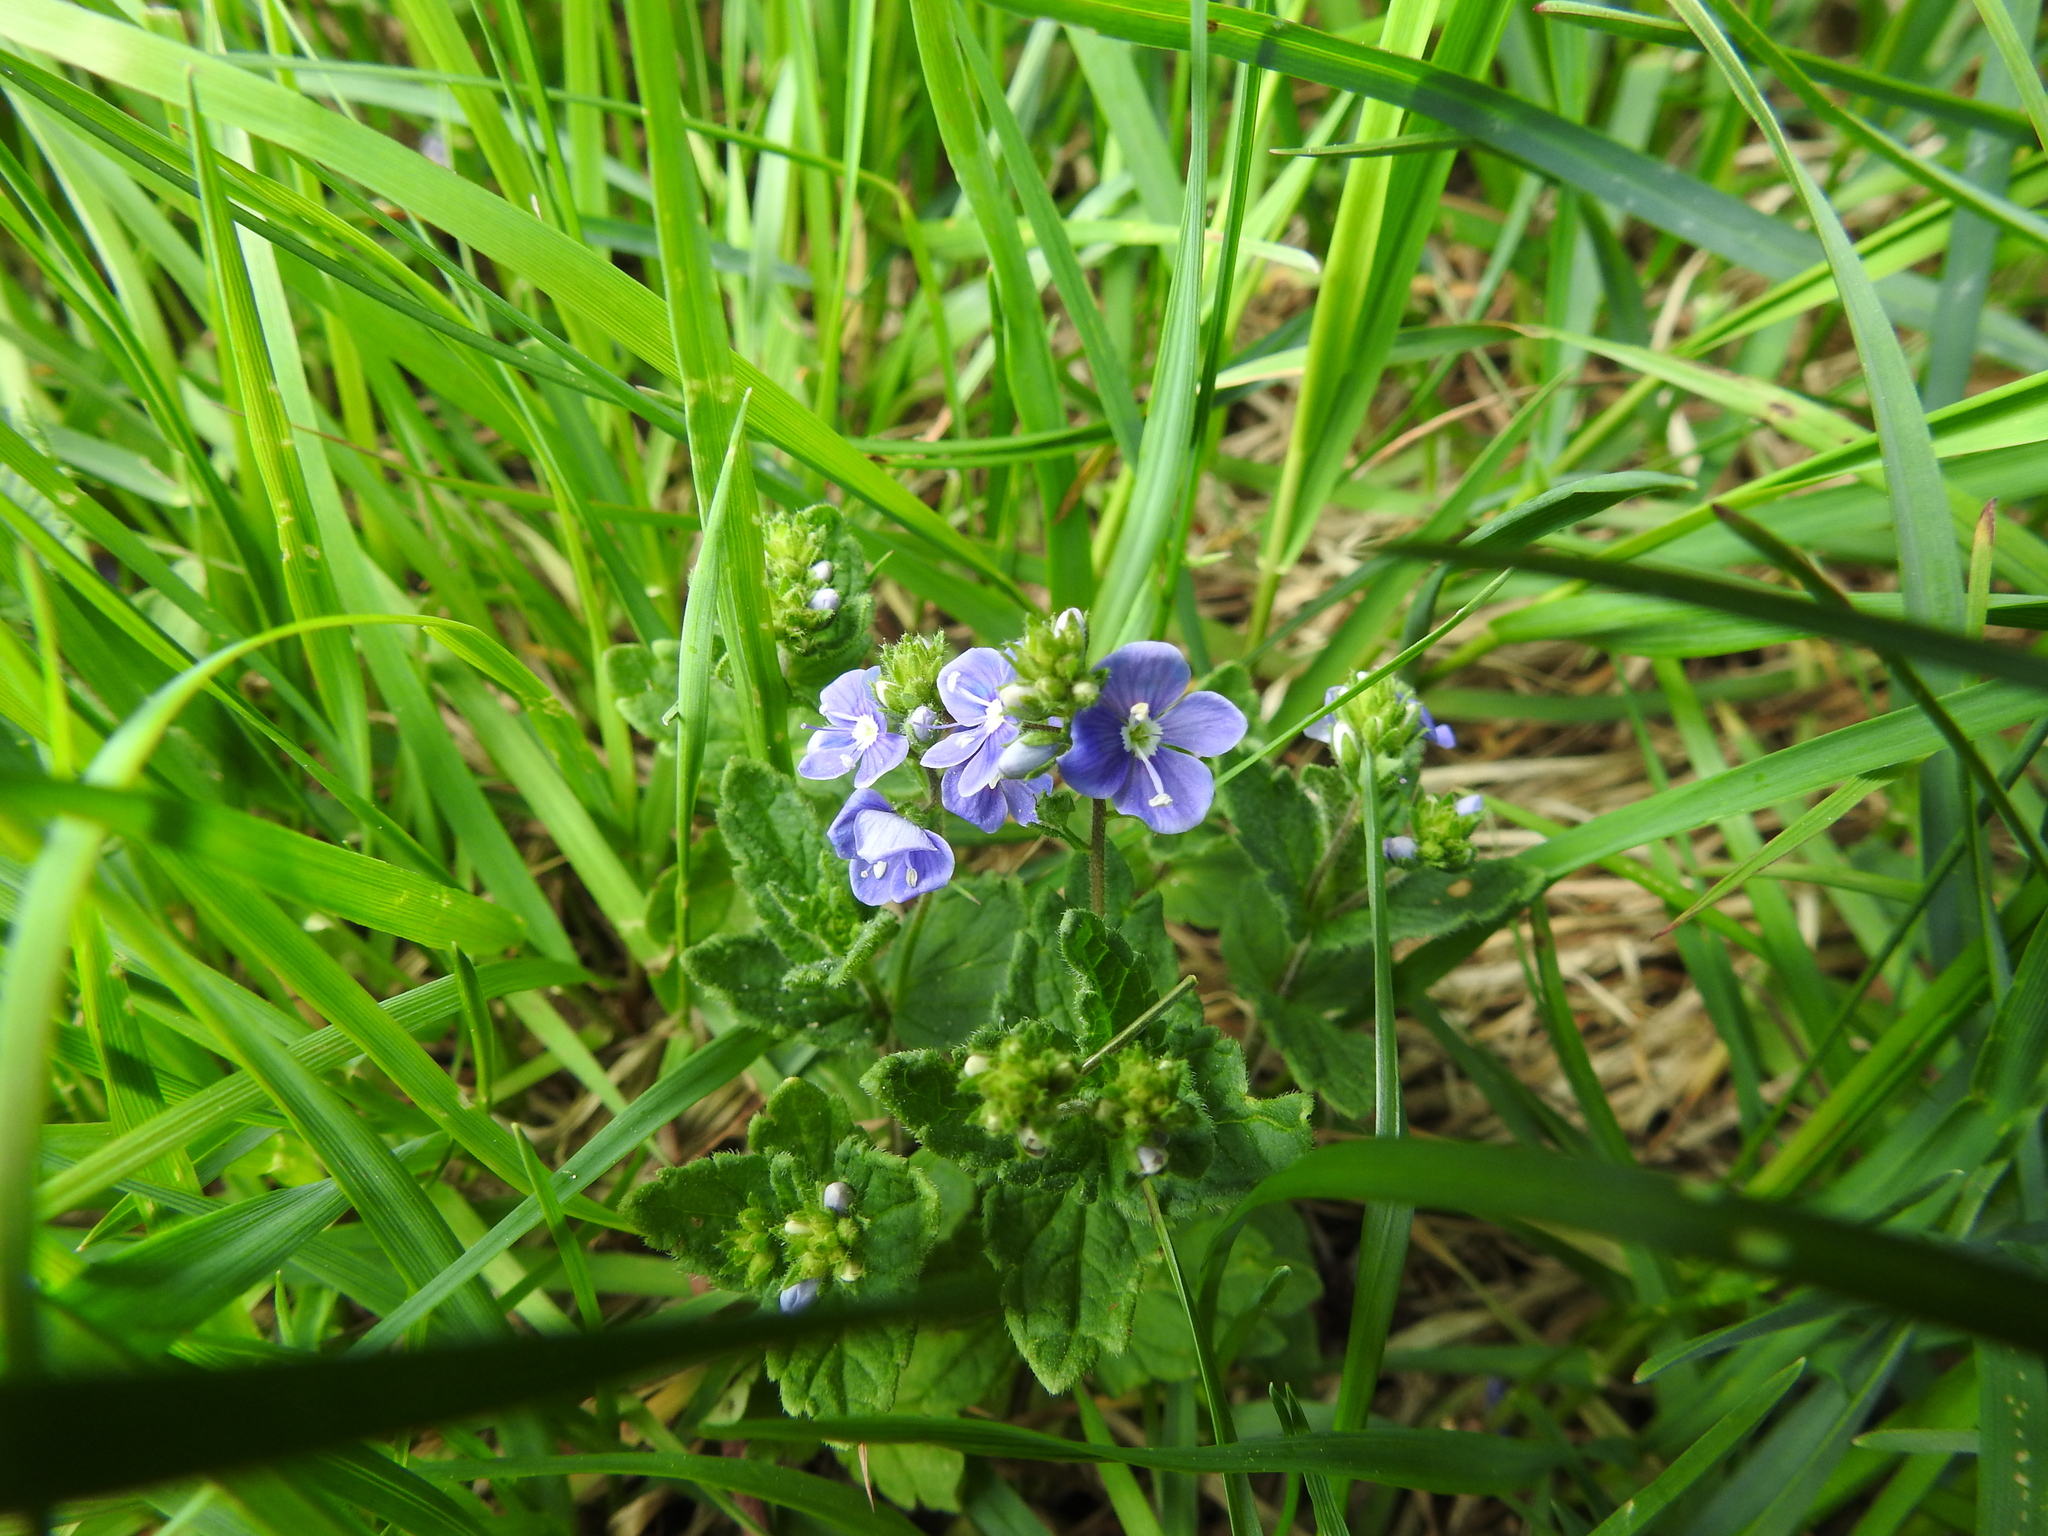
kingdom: Plantae
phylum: Tracheophyta
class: Magnoliopsida
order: Lamiales
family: Plantaginaceae
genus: Veronica
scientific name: Veronica chamaedrys
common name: Germander speedwell
